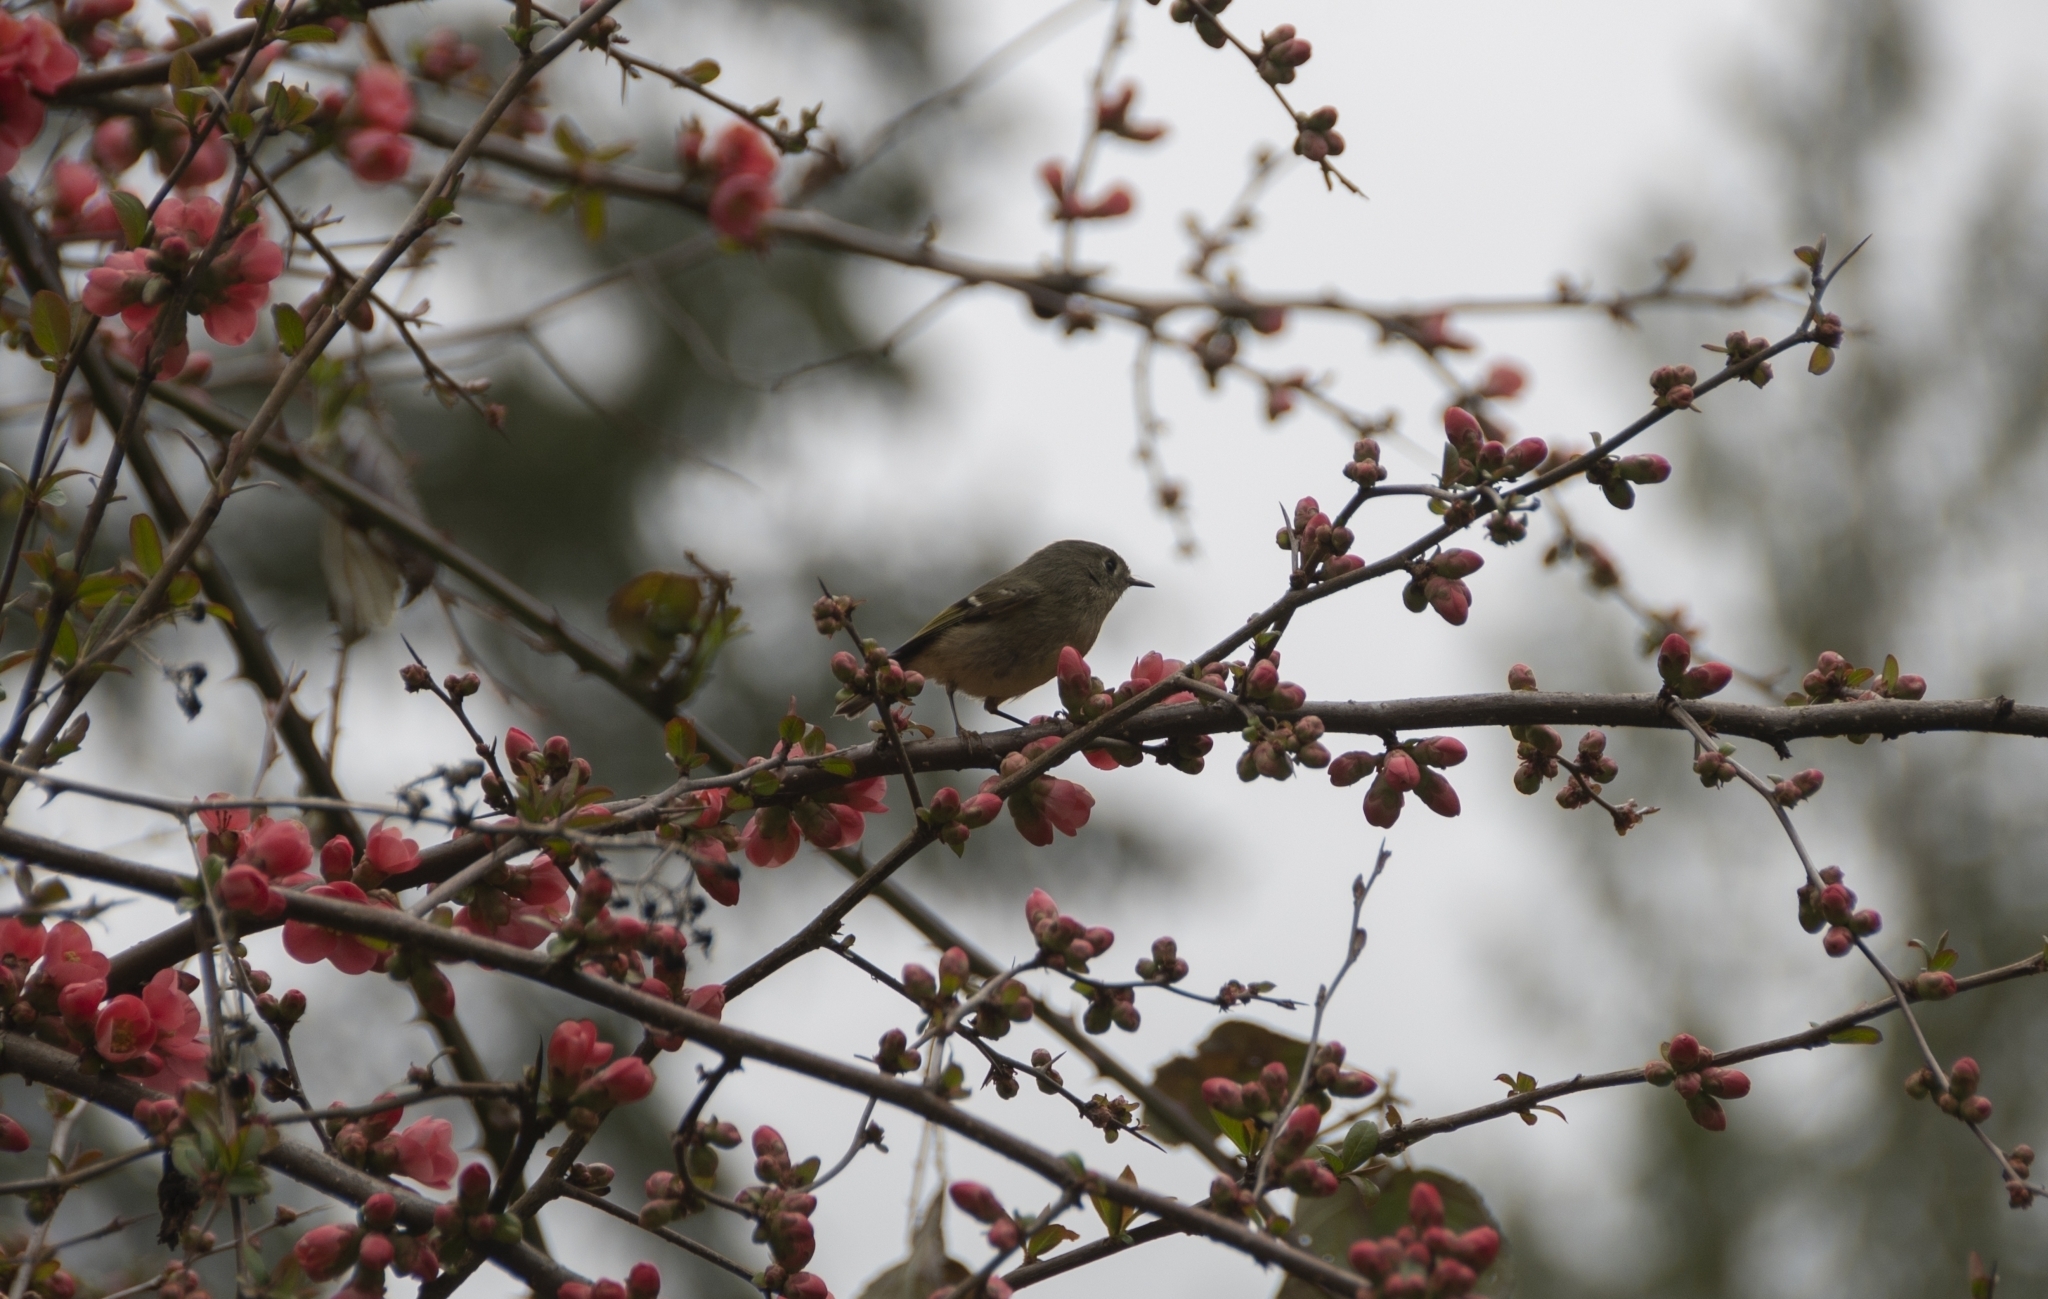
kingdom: Animalia
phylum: Chordata
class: Aves
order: Passeriformes
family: Regulidae
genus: Regulus
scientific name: Regulus calendula
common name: Ruby-crowned kinglet
